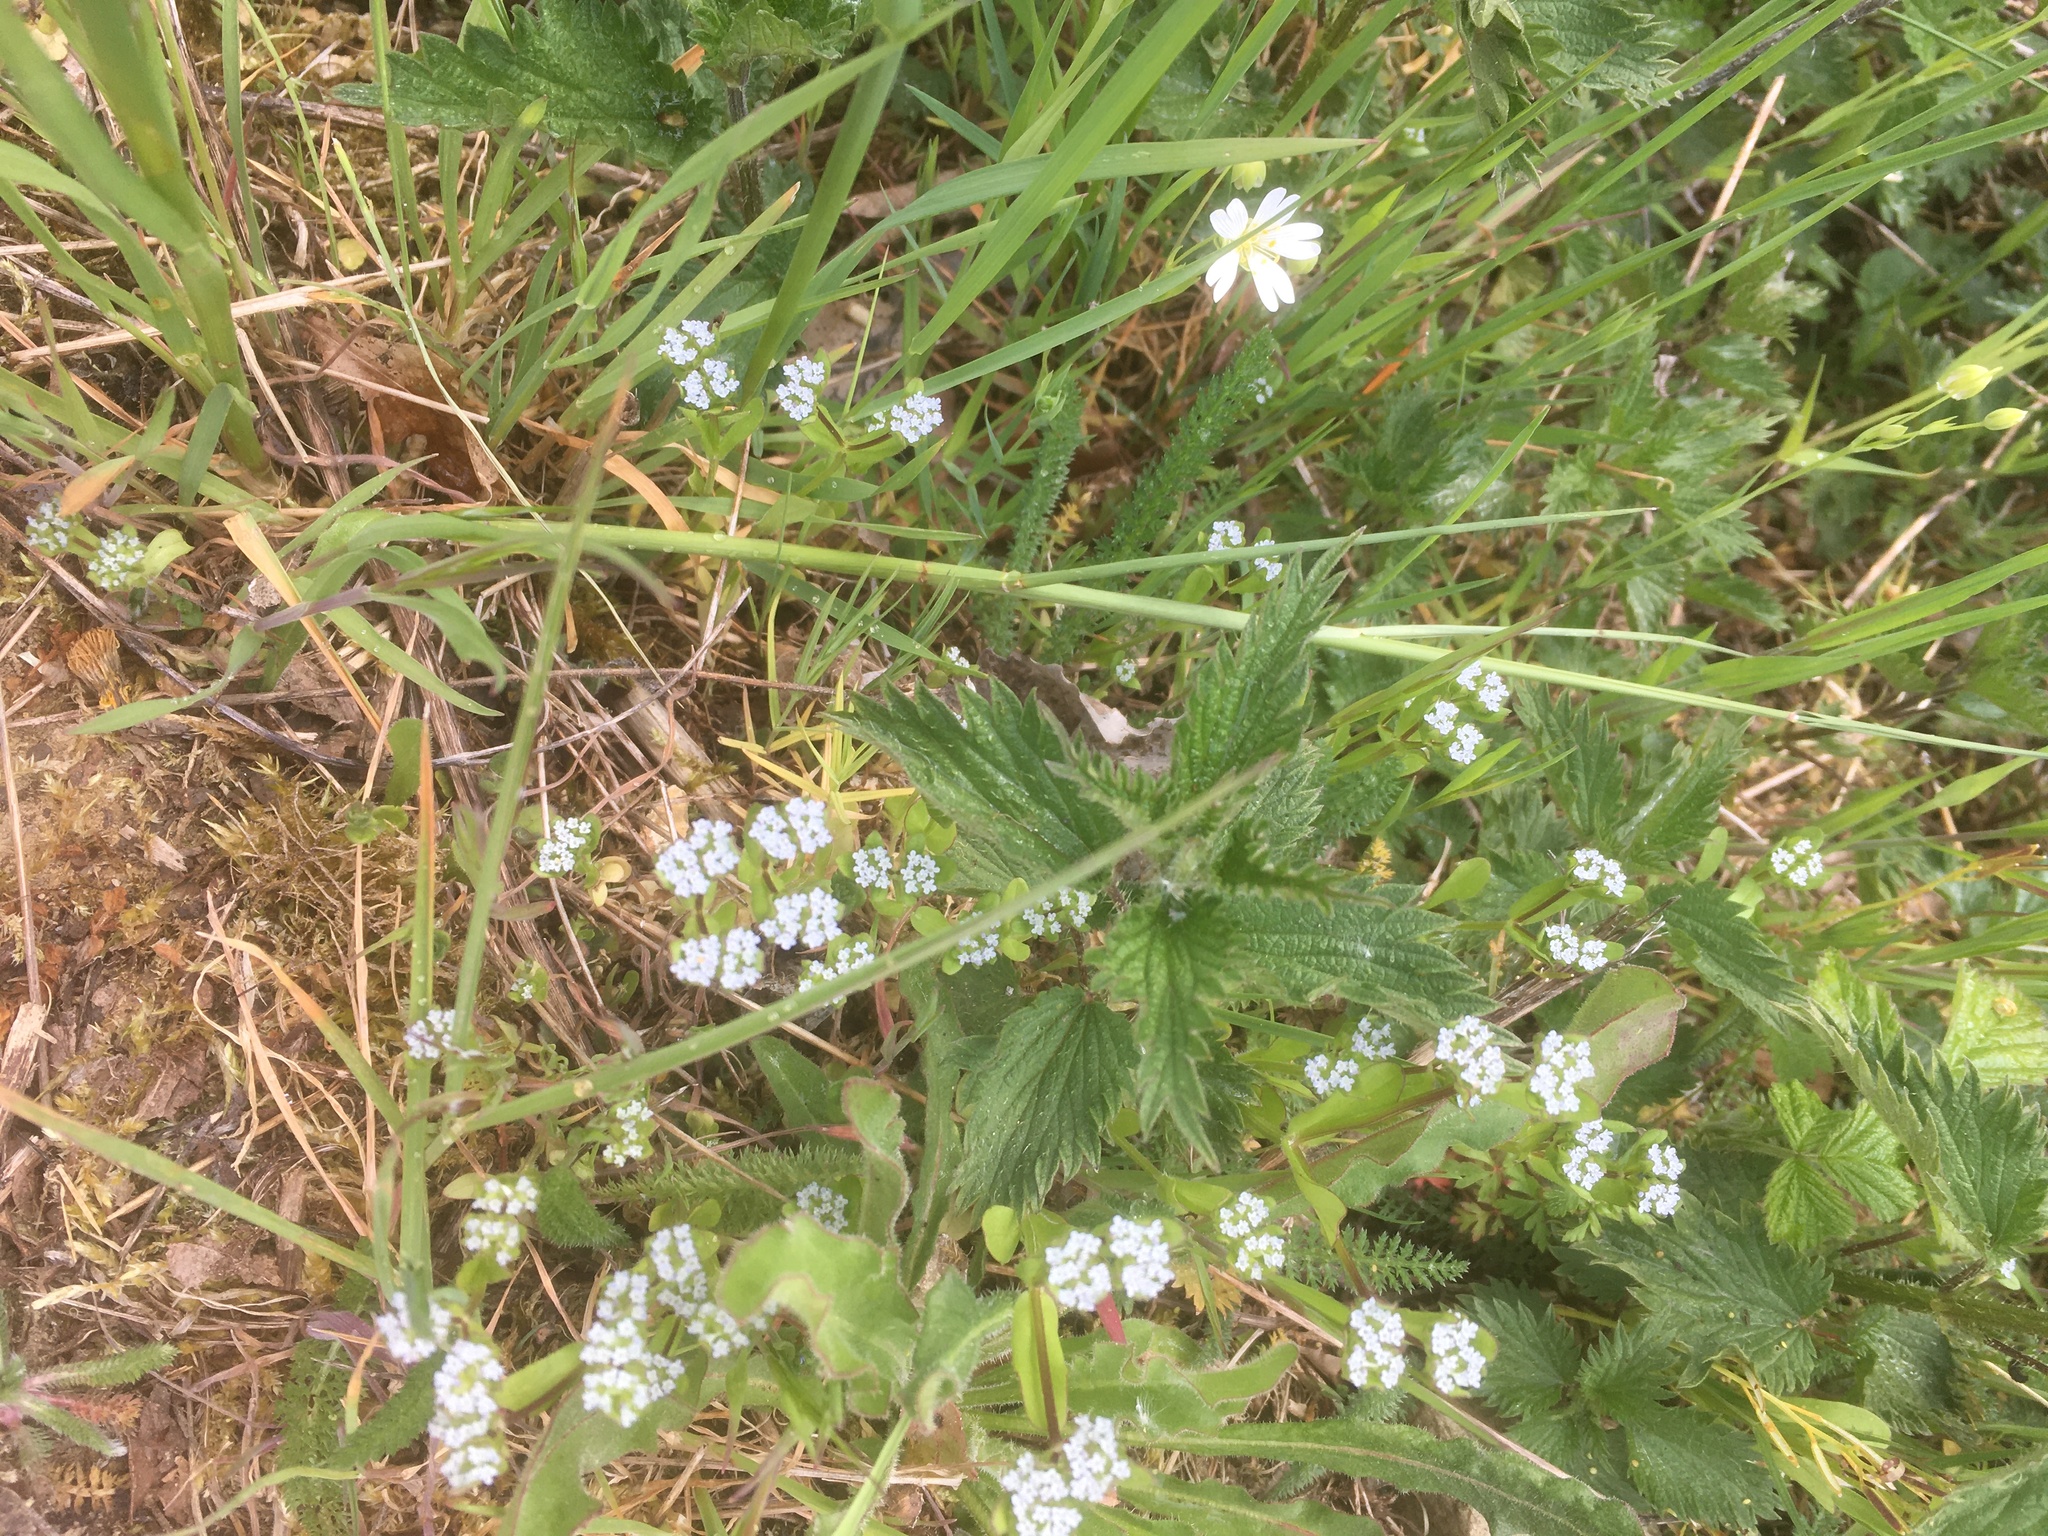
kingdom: Plantae
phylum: Tracheophyta
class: Magnoliopsida
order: Dipsacales
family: Caprifoliaceae
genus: Valerianella
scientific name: Valerianella locusta
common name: Common cornsalad
